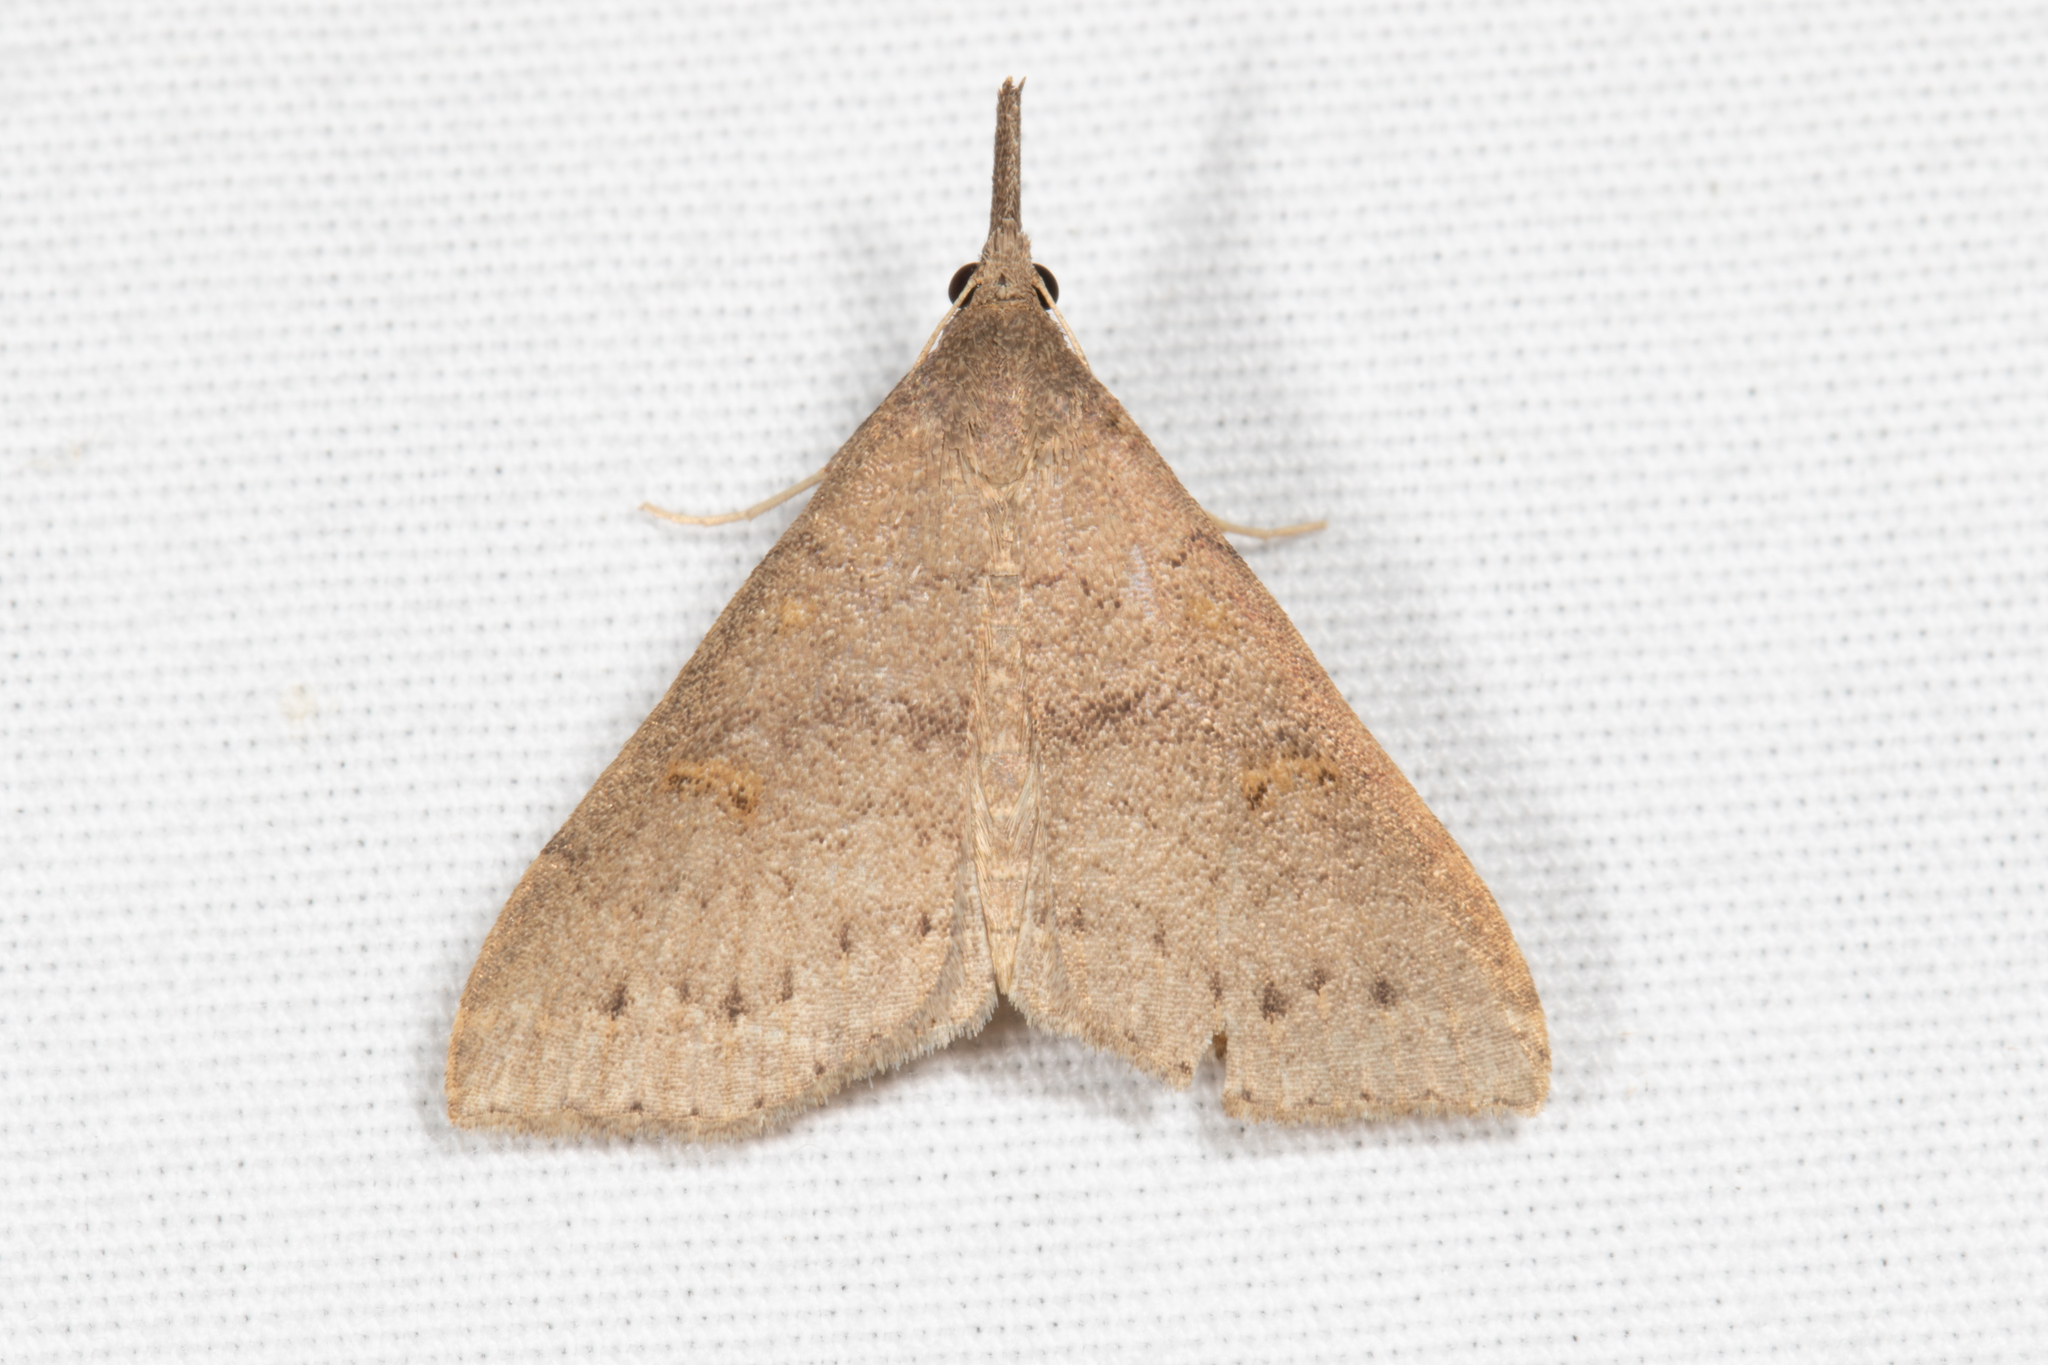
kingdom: Animalia
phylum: Arthropoda
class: Insecta
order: Lepidoptera
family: Erebidae
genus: Renia
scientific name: Renia adspergillus
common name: Speckled renia moth
